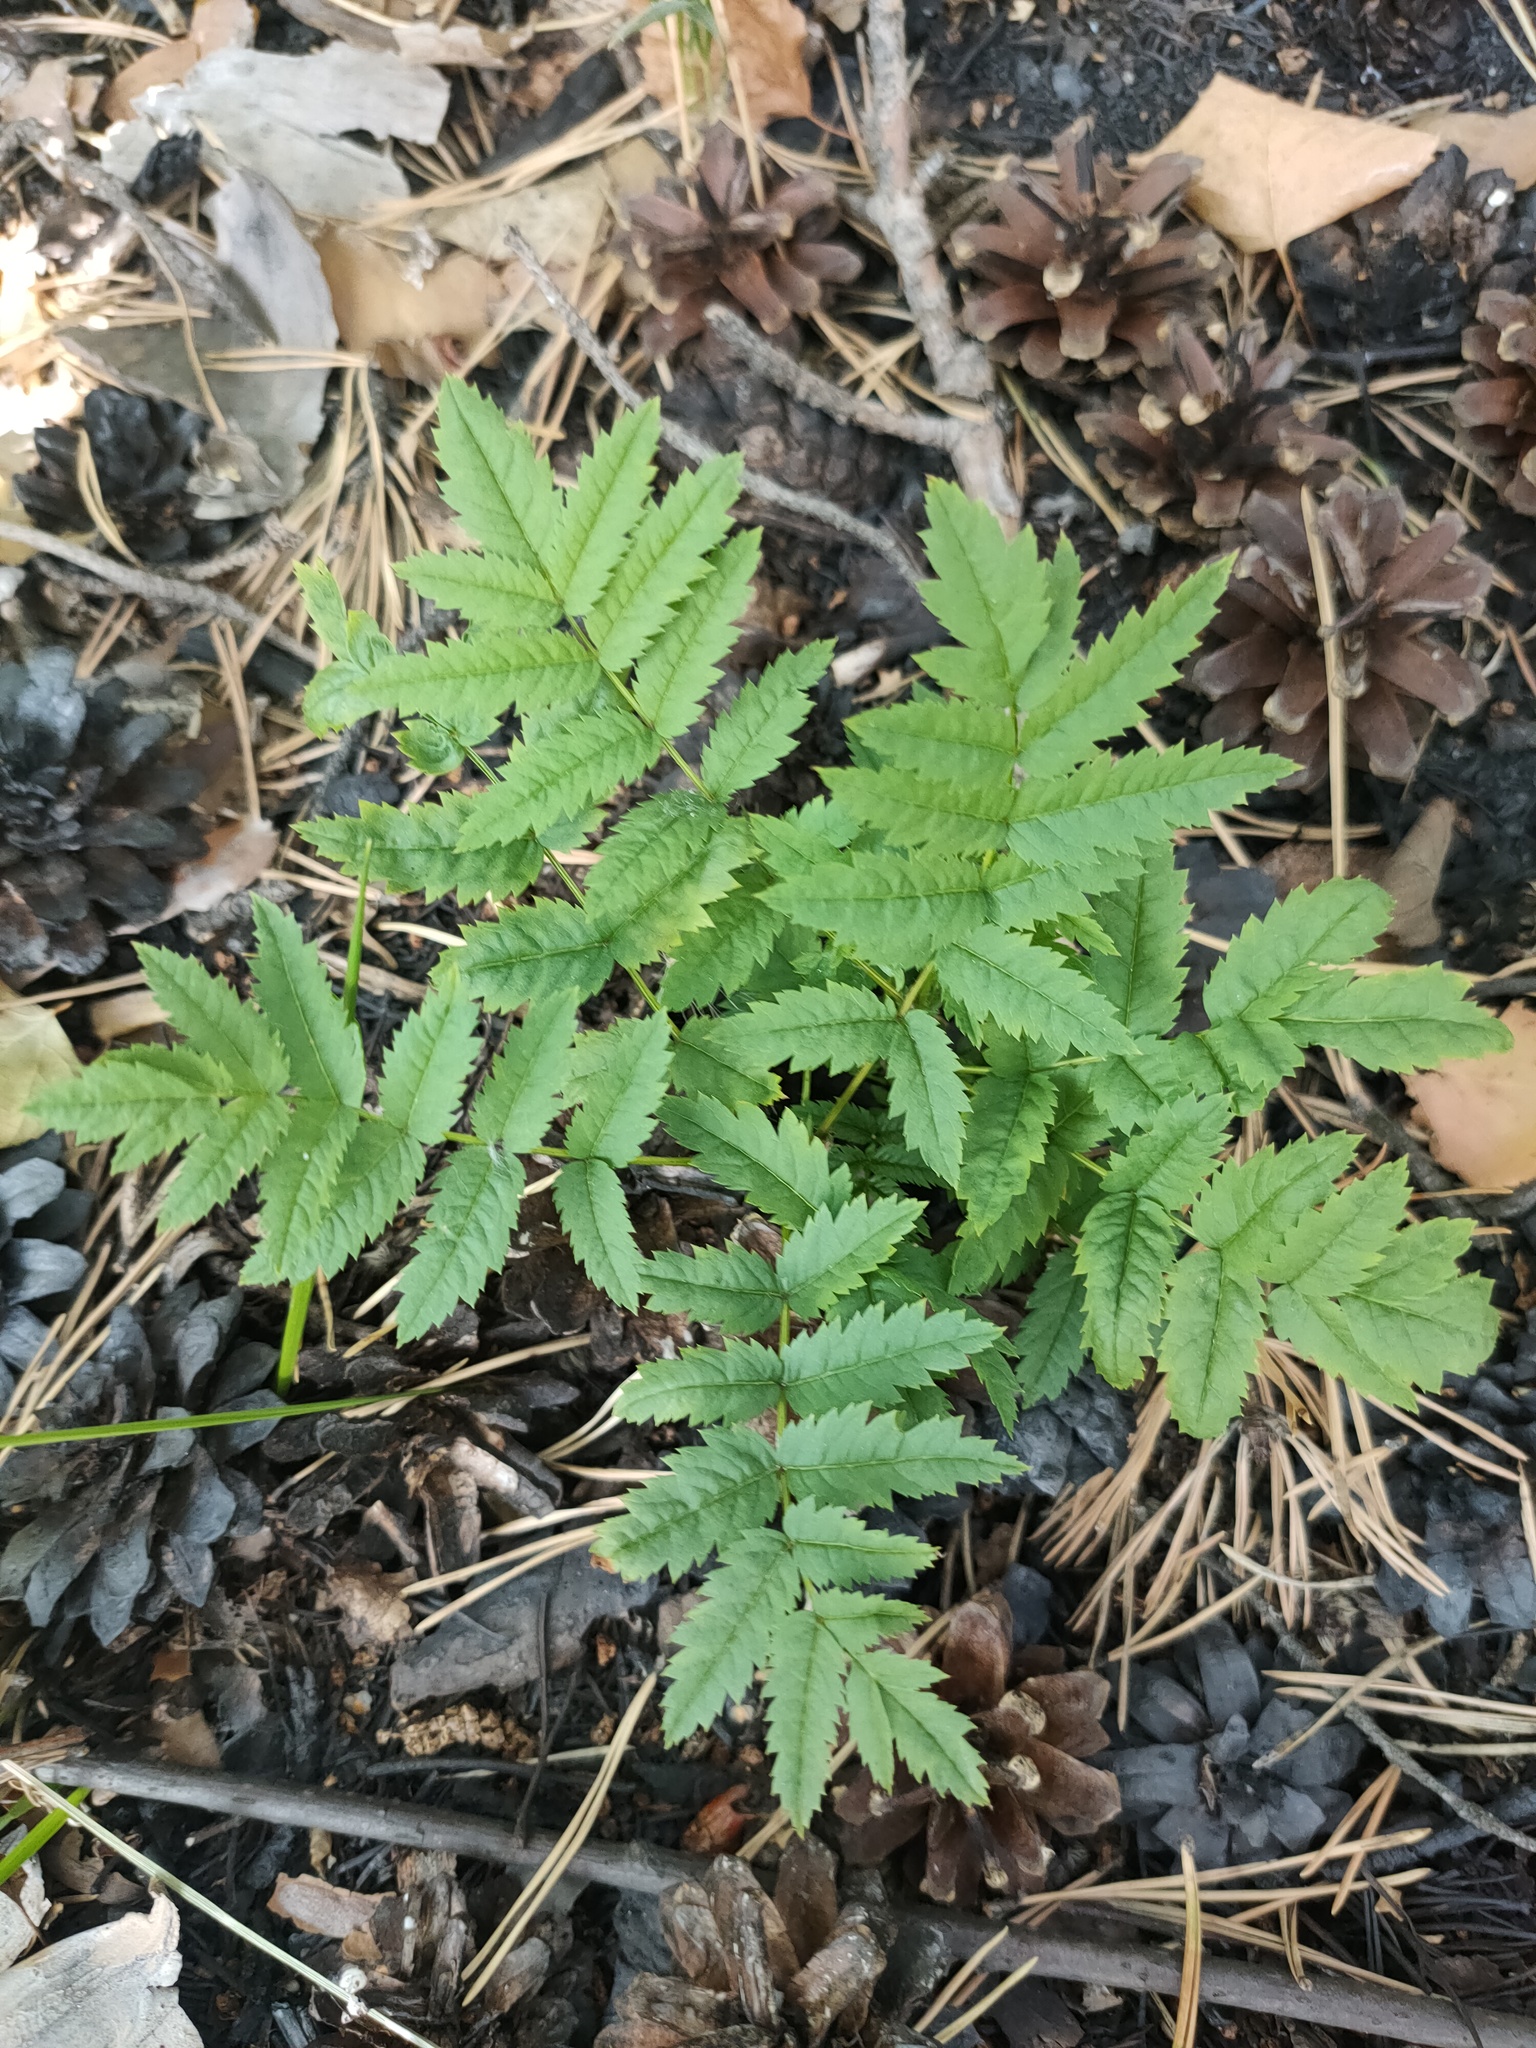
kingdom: Plantae
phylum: Tracheophyta
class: Magnoliopsida
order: Rosales
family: Rosaceae
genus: Sorbus
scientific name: Sorbus aucuparia
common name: Rowan
